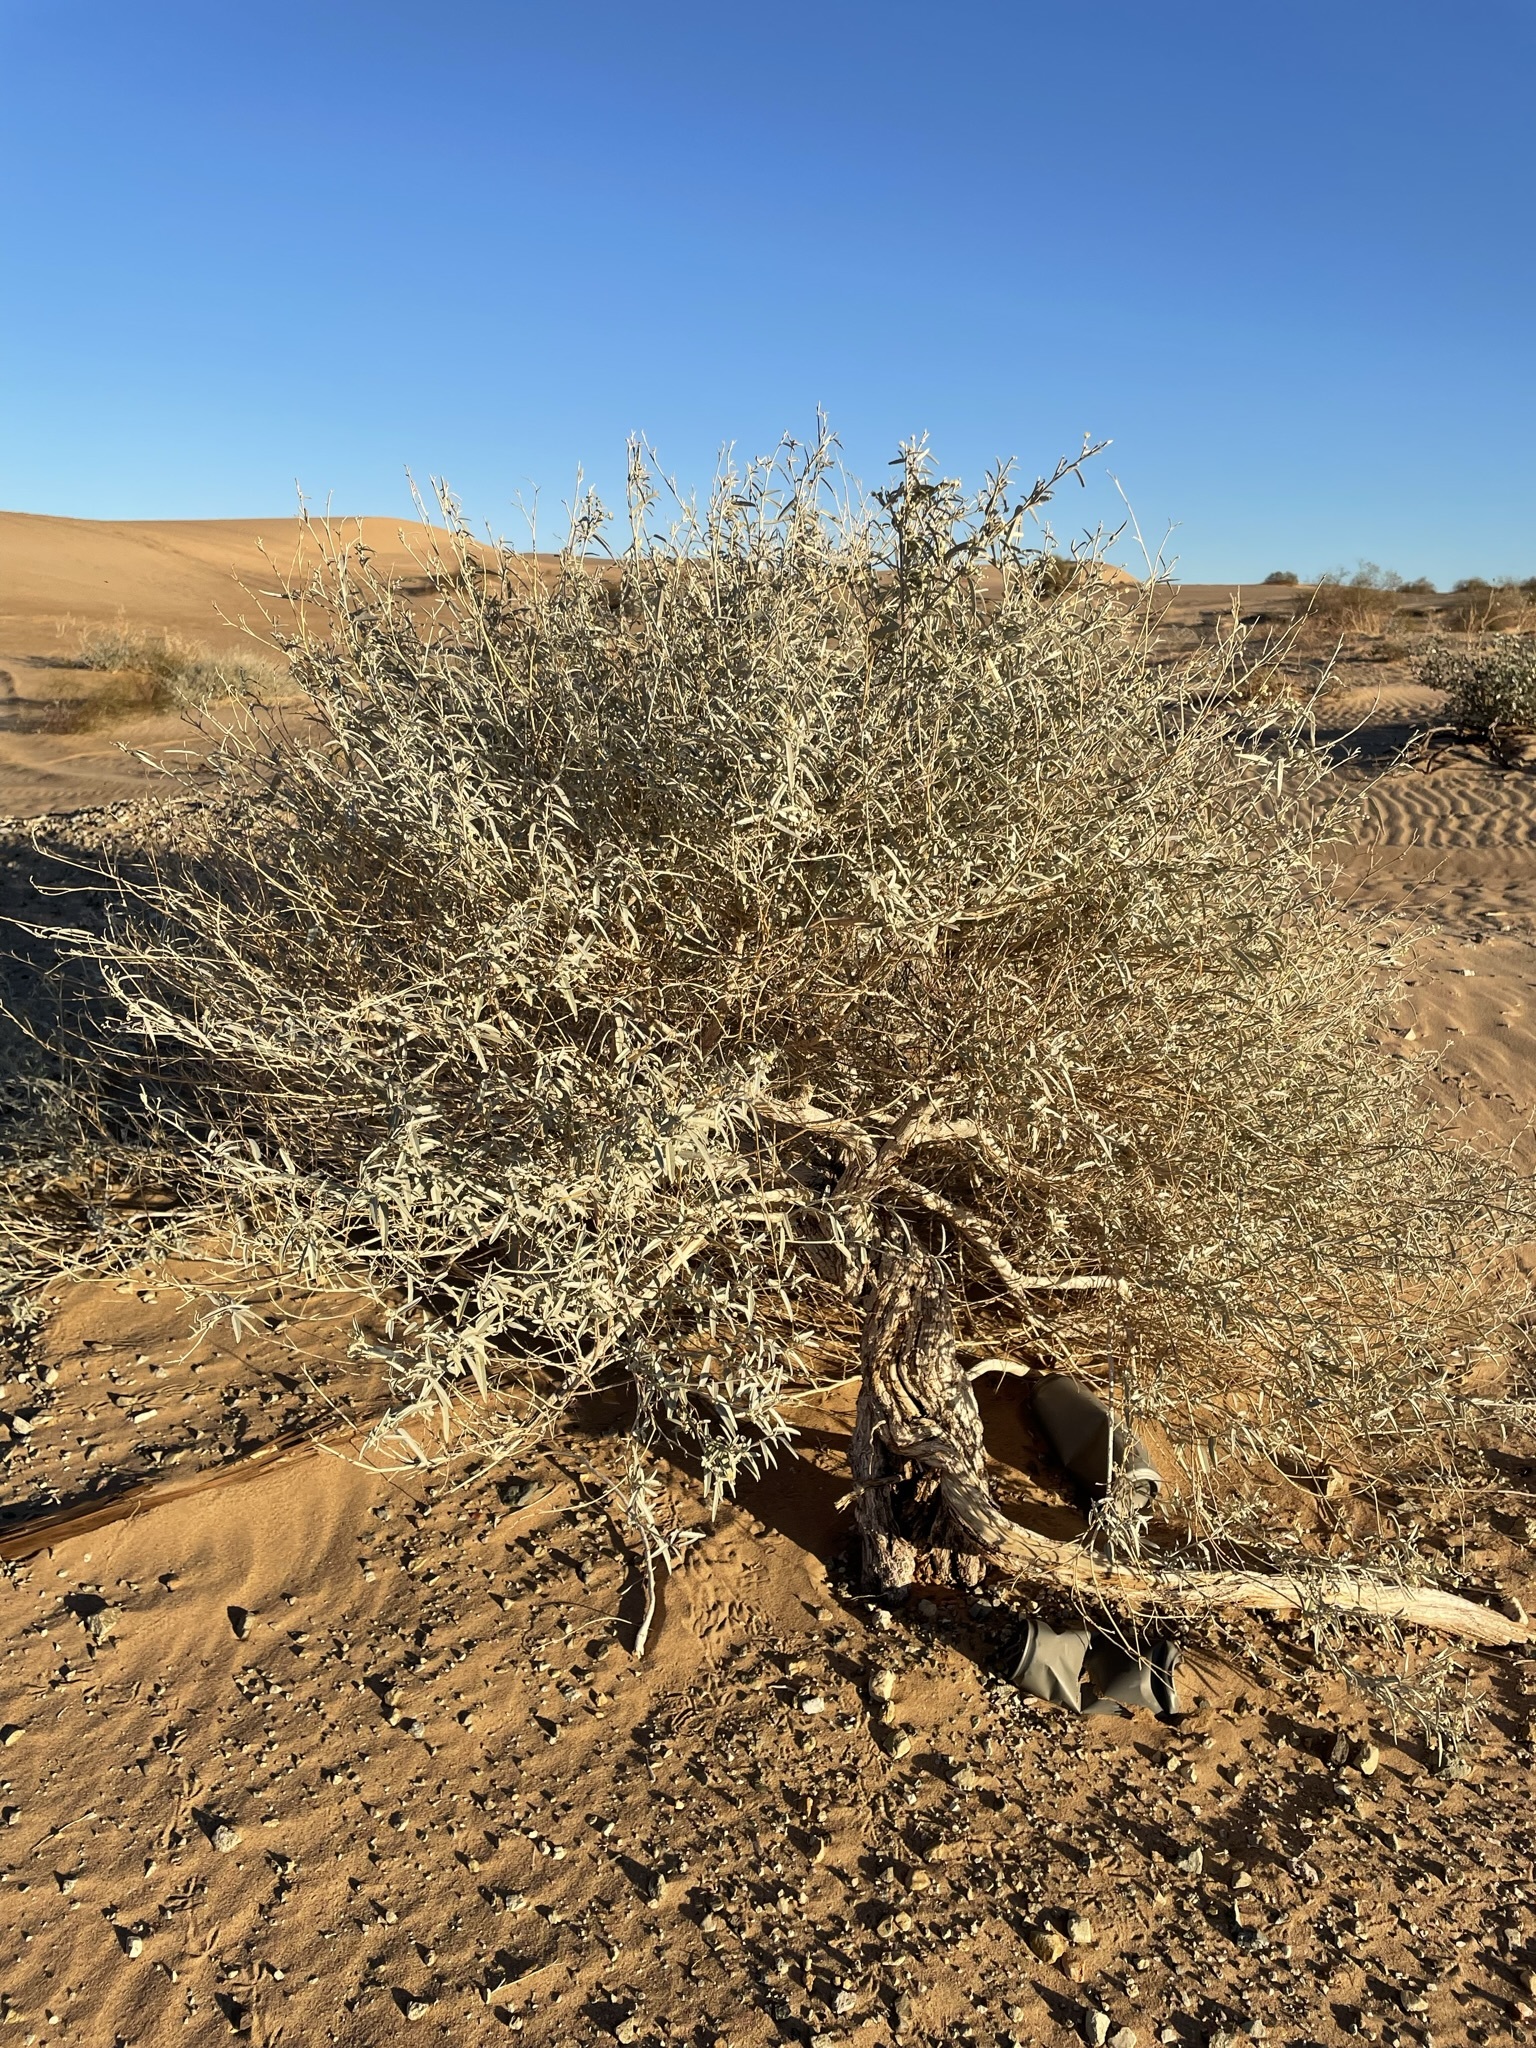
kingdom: Plantae
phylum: Tracheophyta
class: Magnoliopsida
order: Malpighiales
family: Euphorbiaceae
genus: Croton
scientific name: Croton wigginsii
